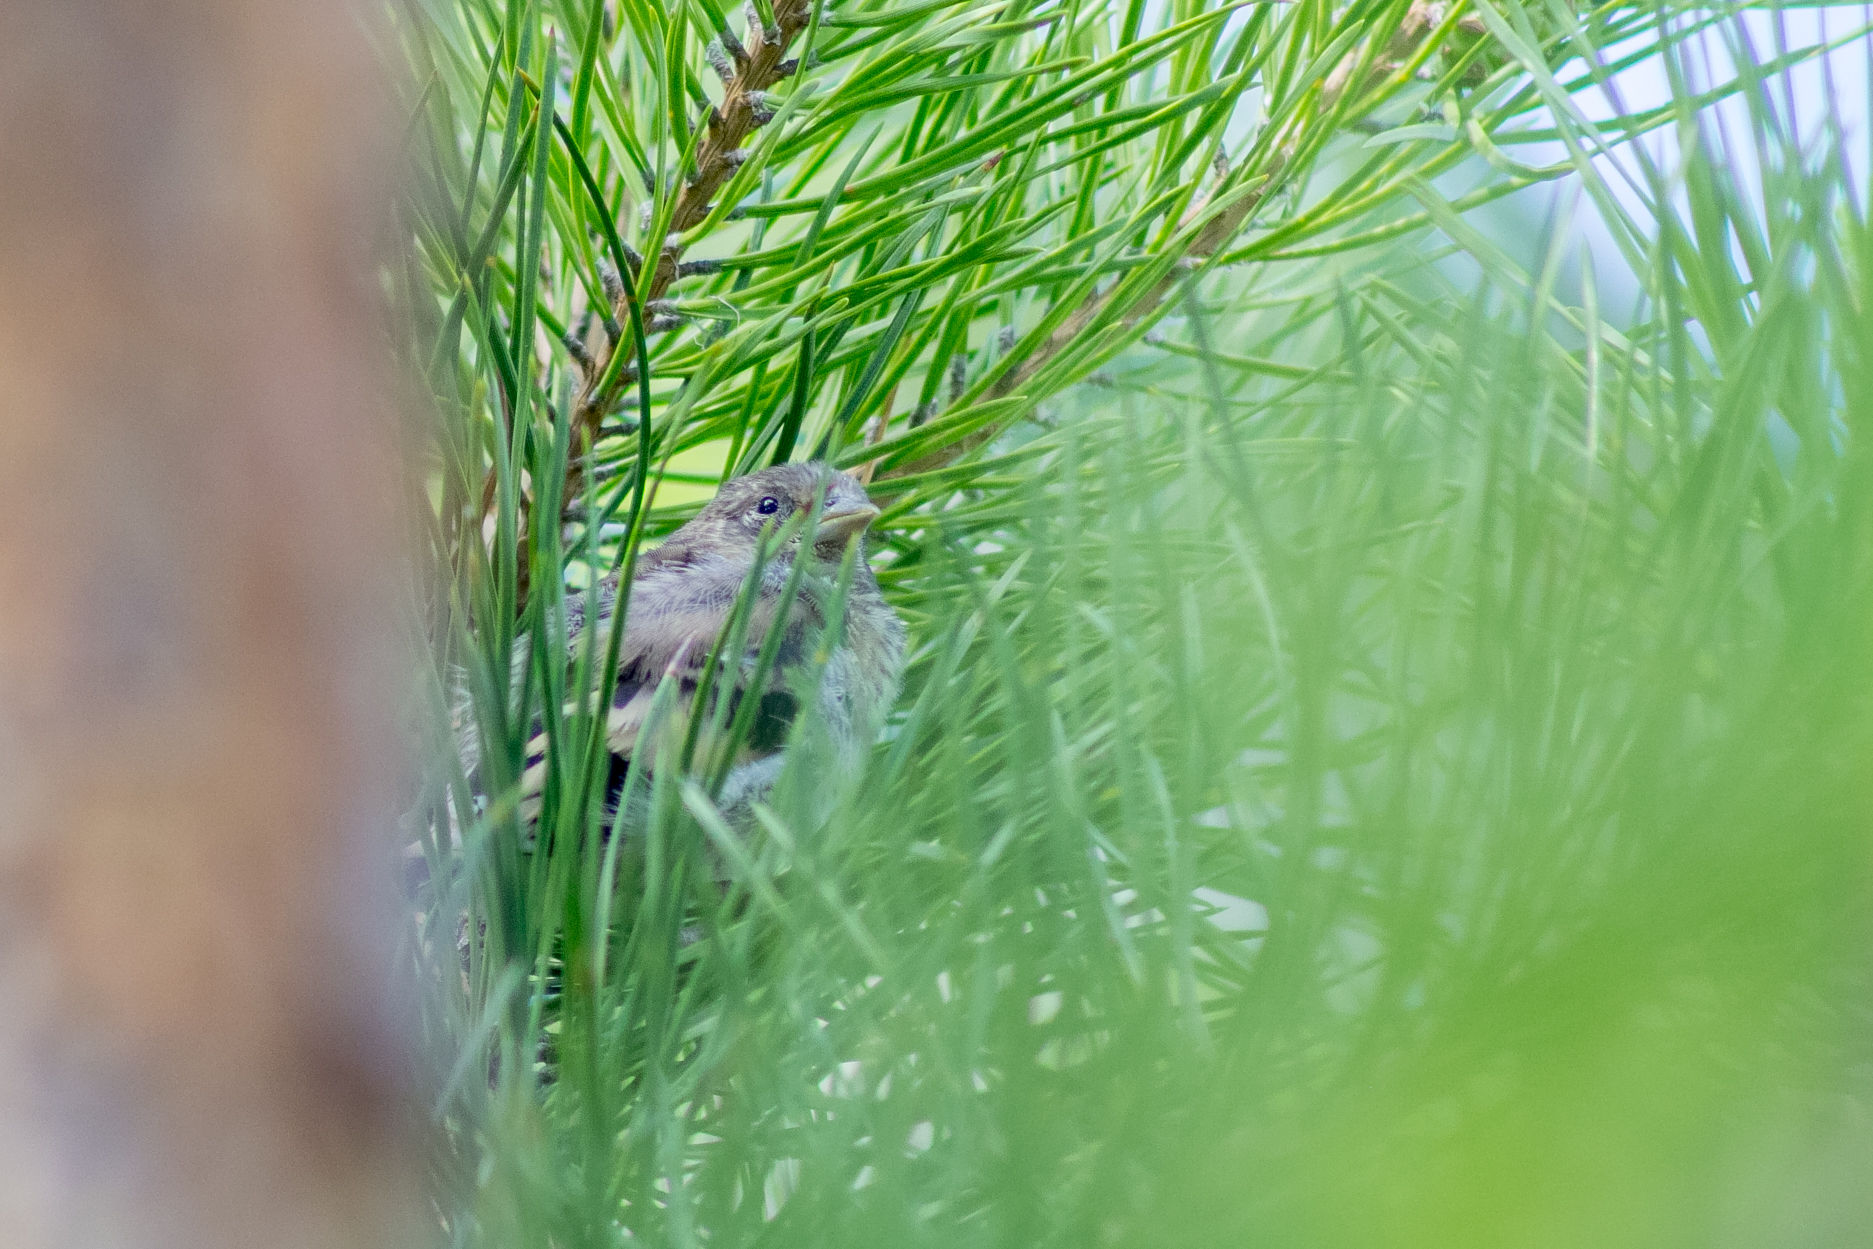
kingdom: Animalia
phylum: Chordata
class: Aves
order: Passeriformes
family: Fringillidae
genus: Carduelis
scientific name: Carduelis carduelis
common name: European goldfinch
